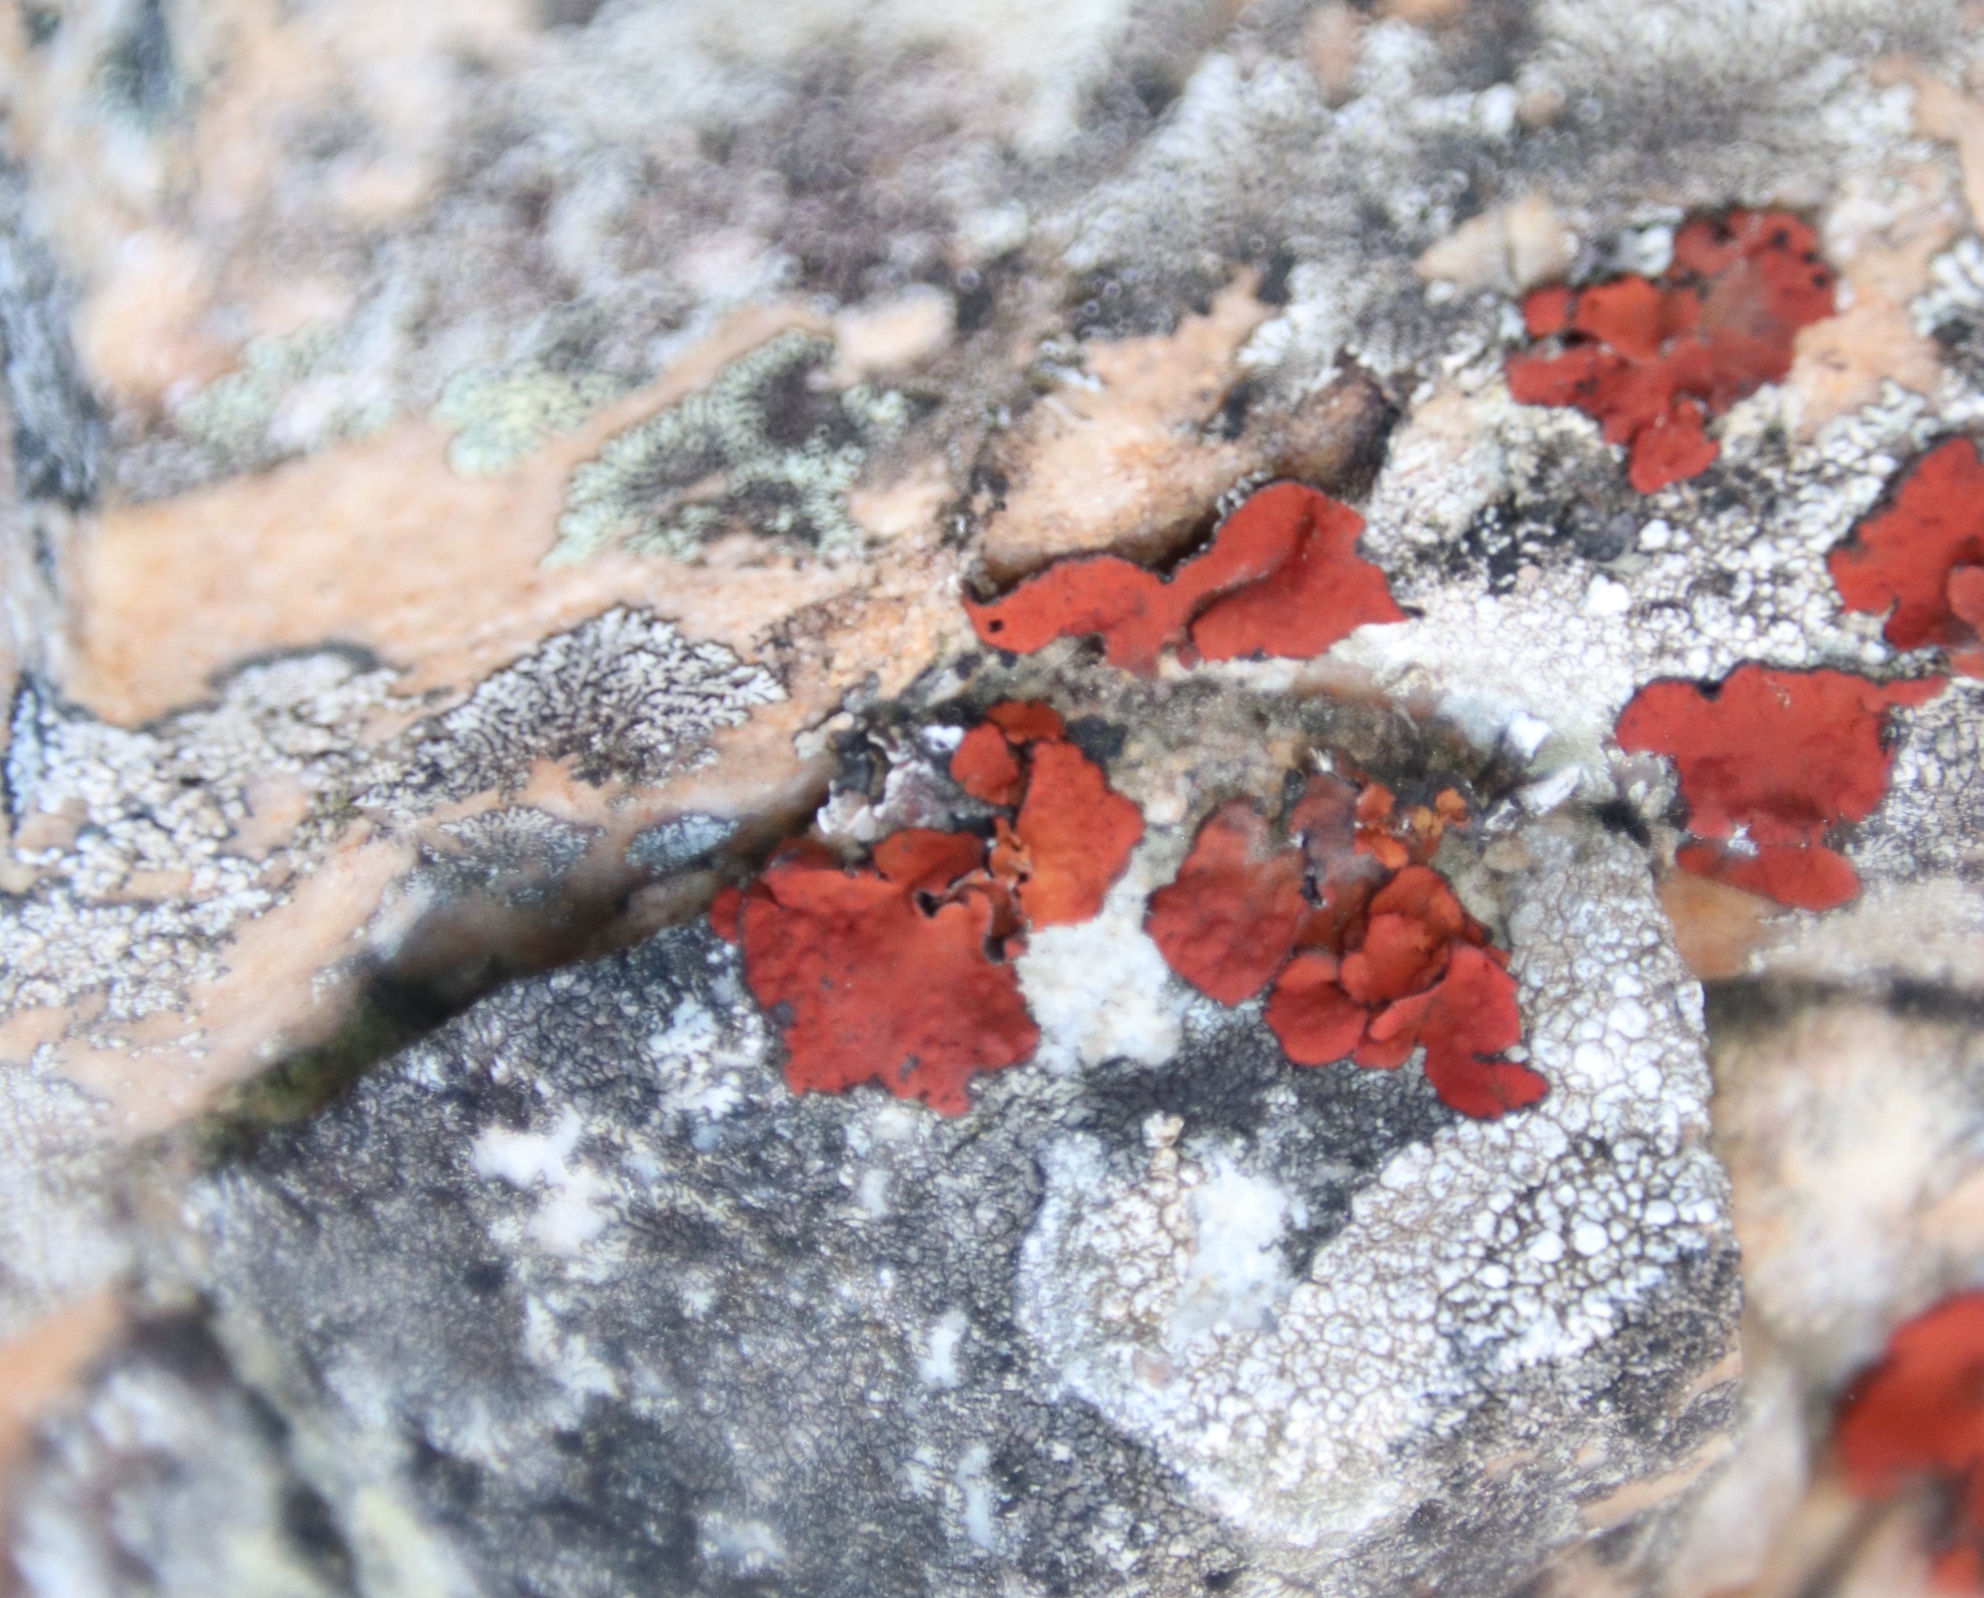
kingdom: Fungi
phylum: Ascomycota
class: Lecanoromycetes
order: Umbilicariales
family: Umbilicariaceae
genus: Lasallia
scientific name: Lasallia rubiginosa
